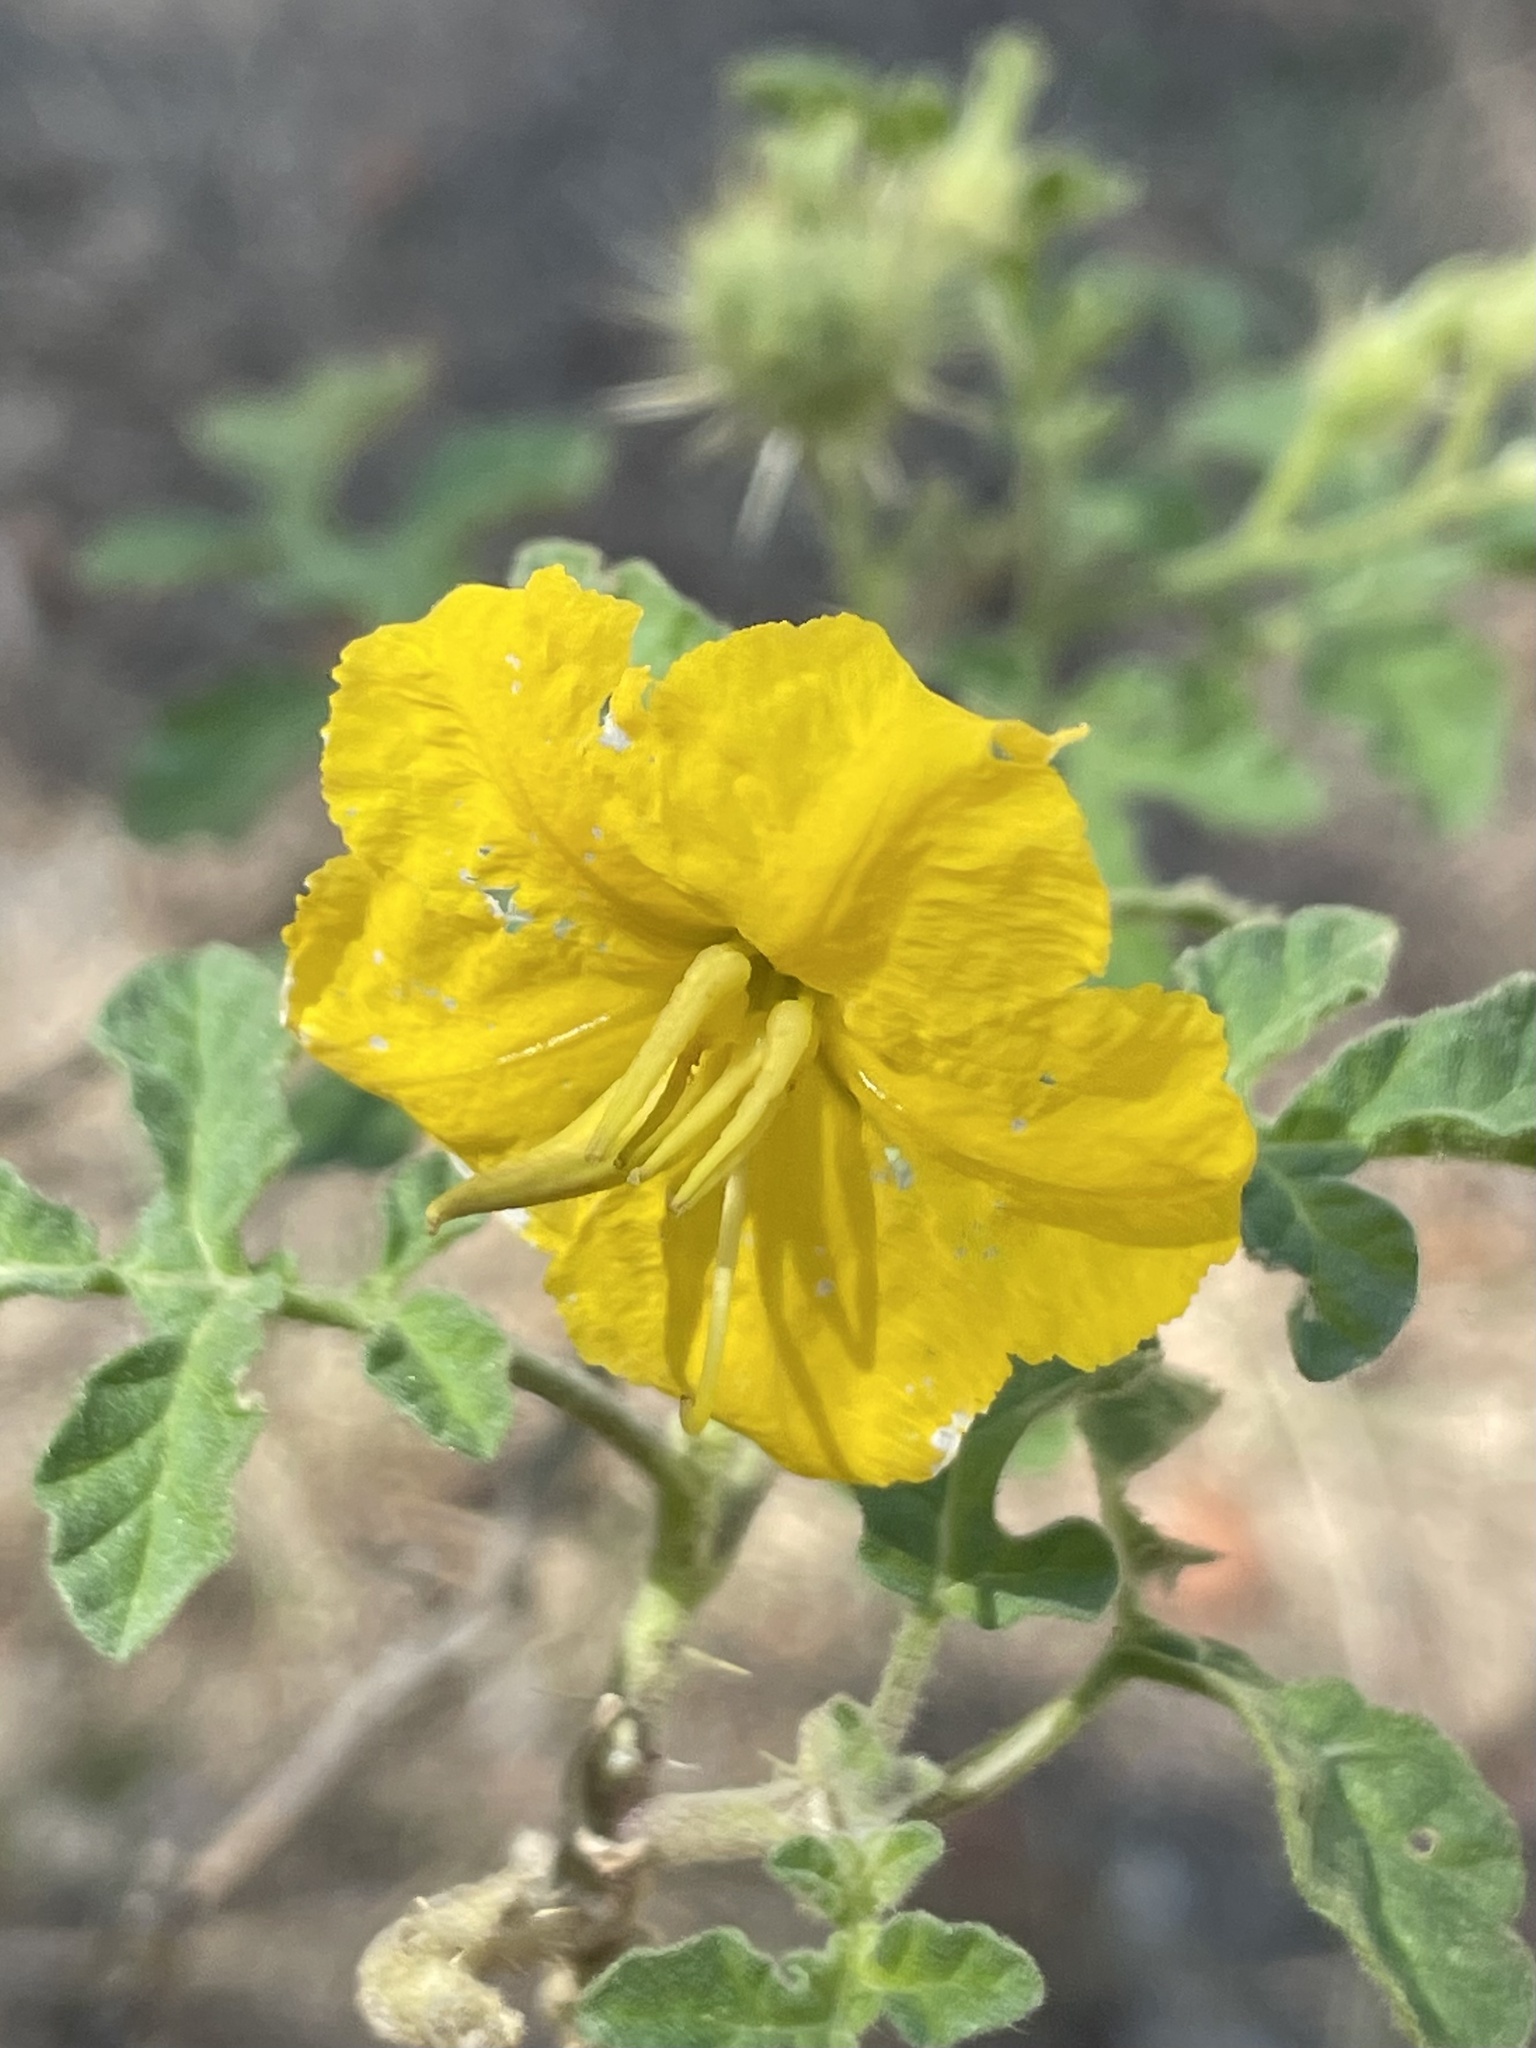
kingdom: Plantae
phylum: Tracheophyta
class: Magnoliopsida
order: Solanales
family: Solanaceae
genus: Solanum
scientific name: Solanum angustifolium
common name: Buffalobur nightshade
